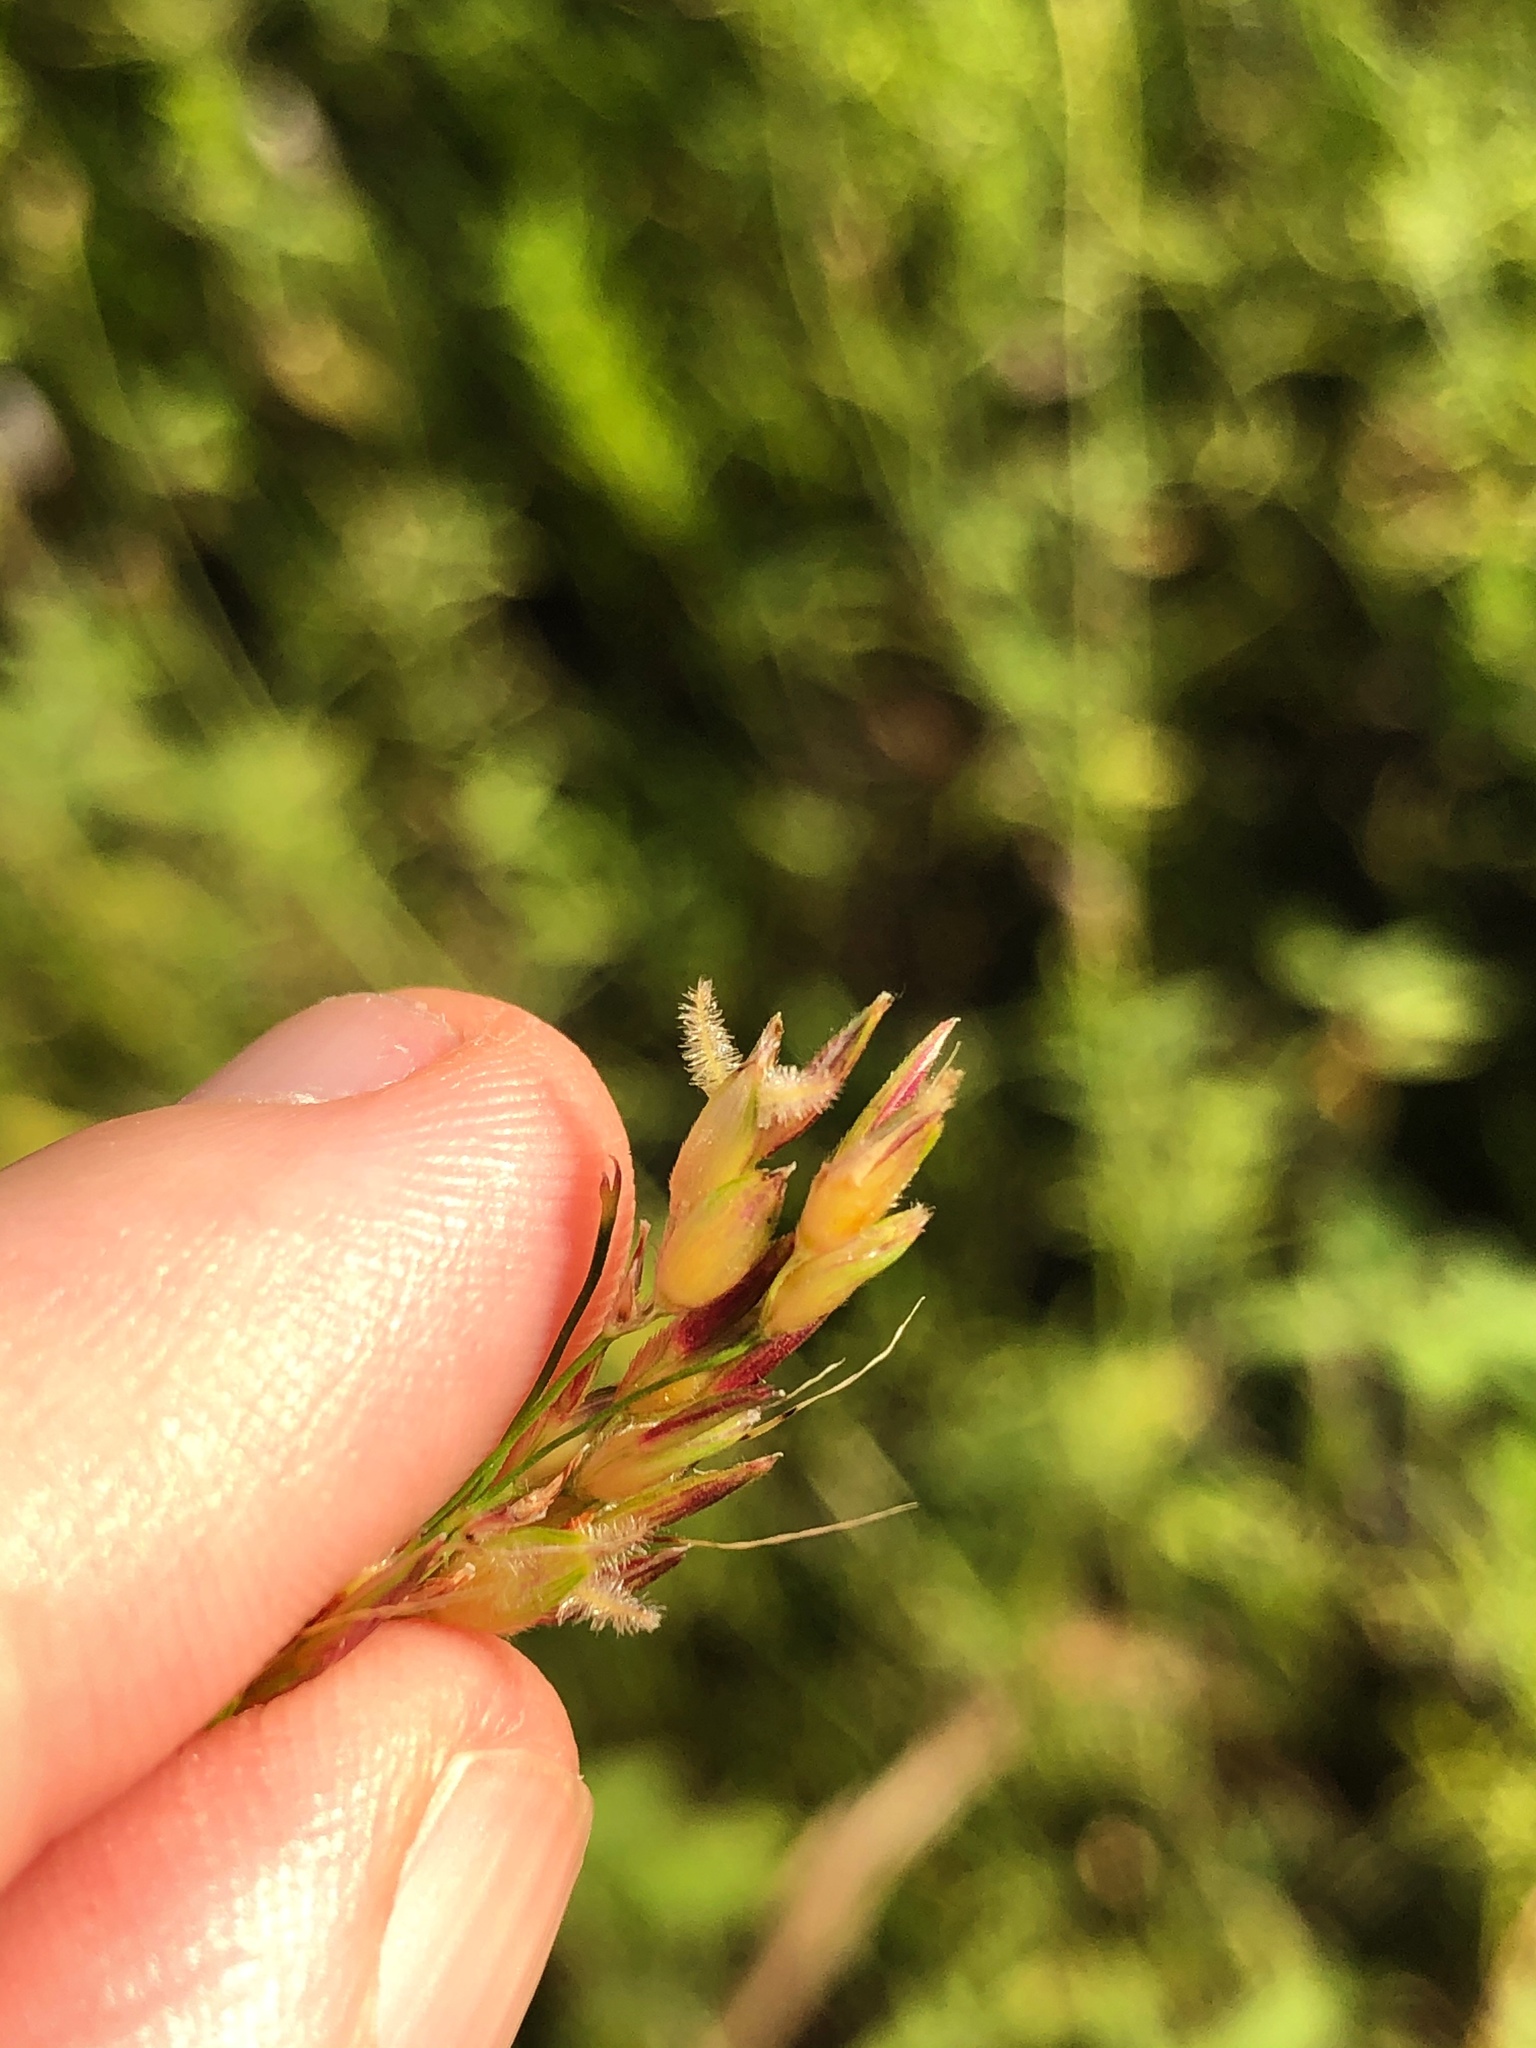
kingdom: Plantae
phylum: Tracheophyta
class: Liliopsida
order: Poales
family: Poaceae
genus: Sorghum
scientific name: Sorghum halepense
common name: Johnson-grass
